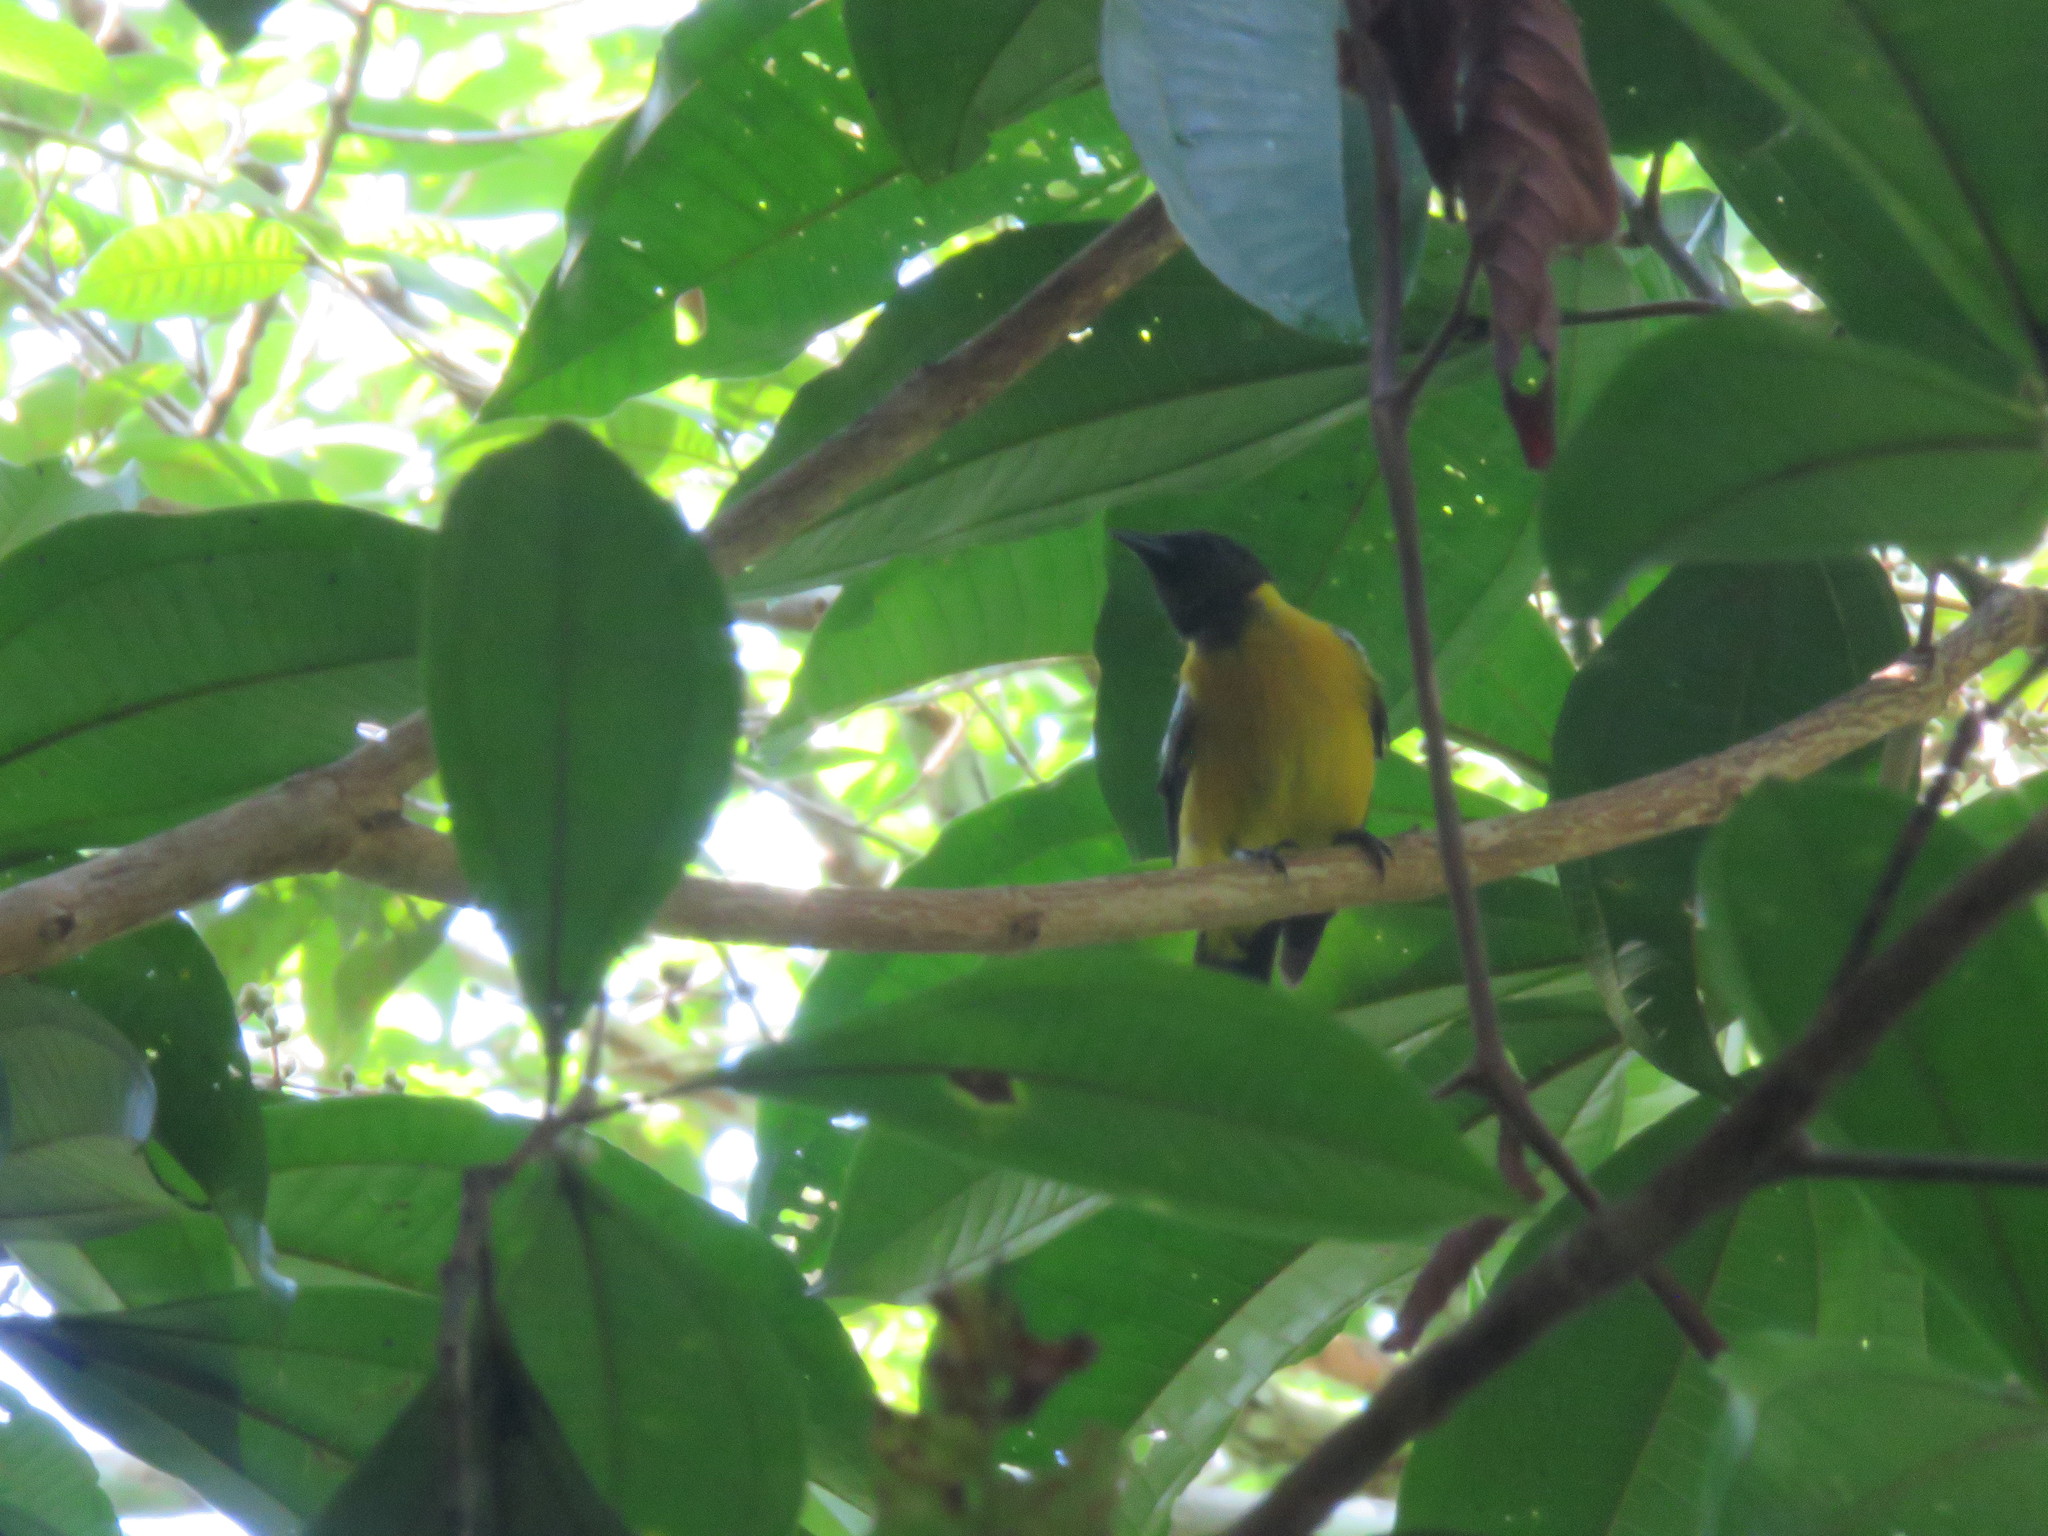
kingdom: Animalia
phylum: Chordata
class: Aves
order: Passeriformes
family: Thraupidae
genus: Lanio
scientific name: Lanio versicolor
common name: White-winged shrike-tanager
